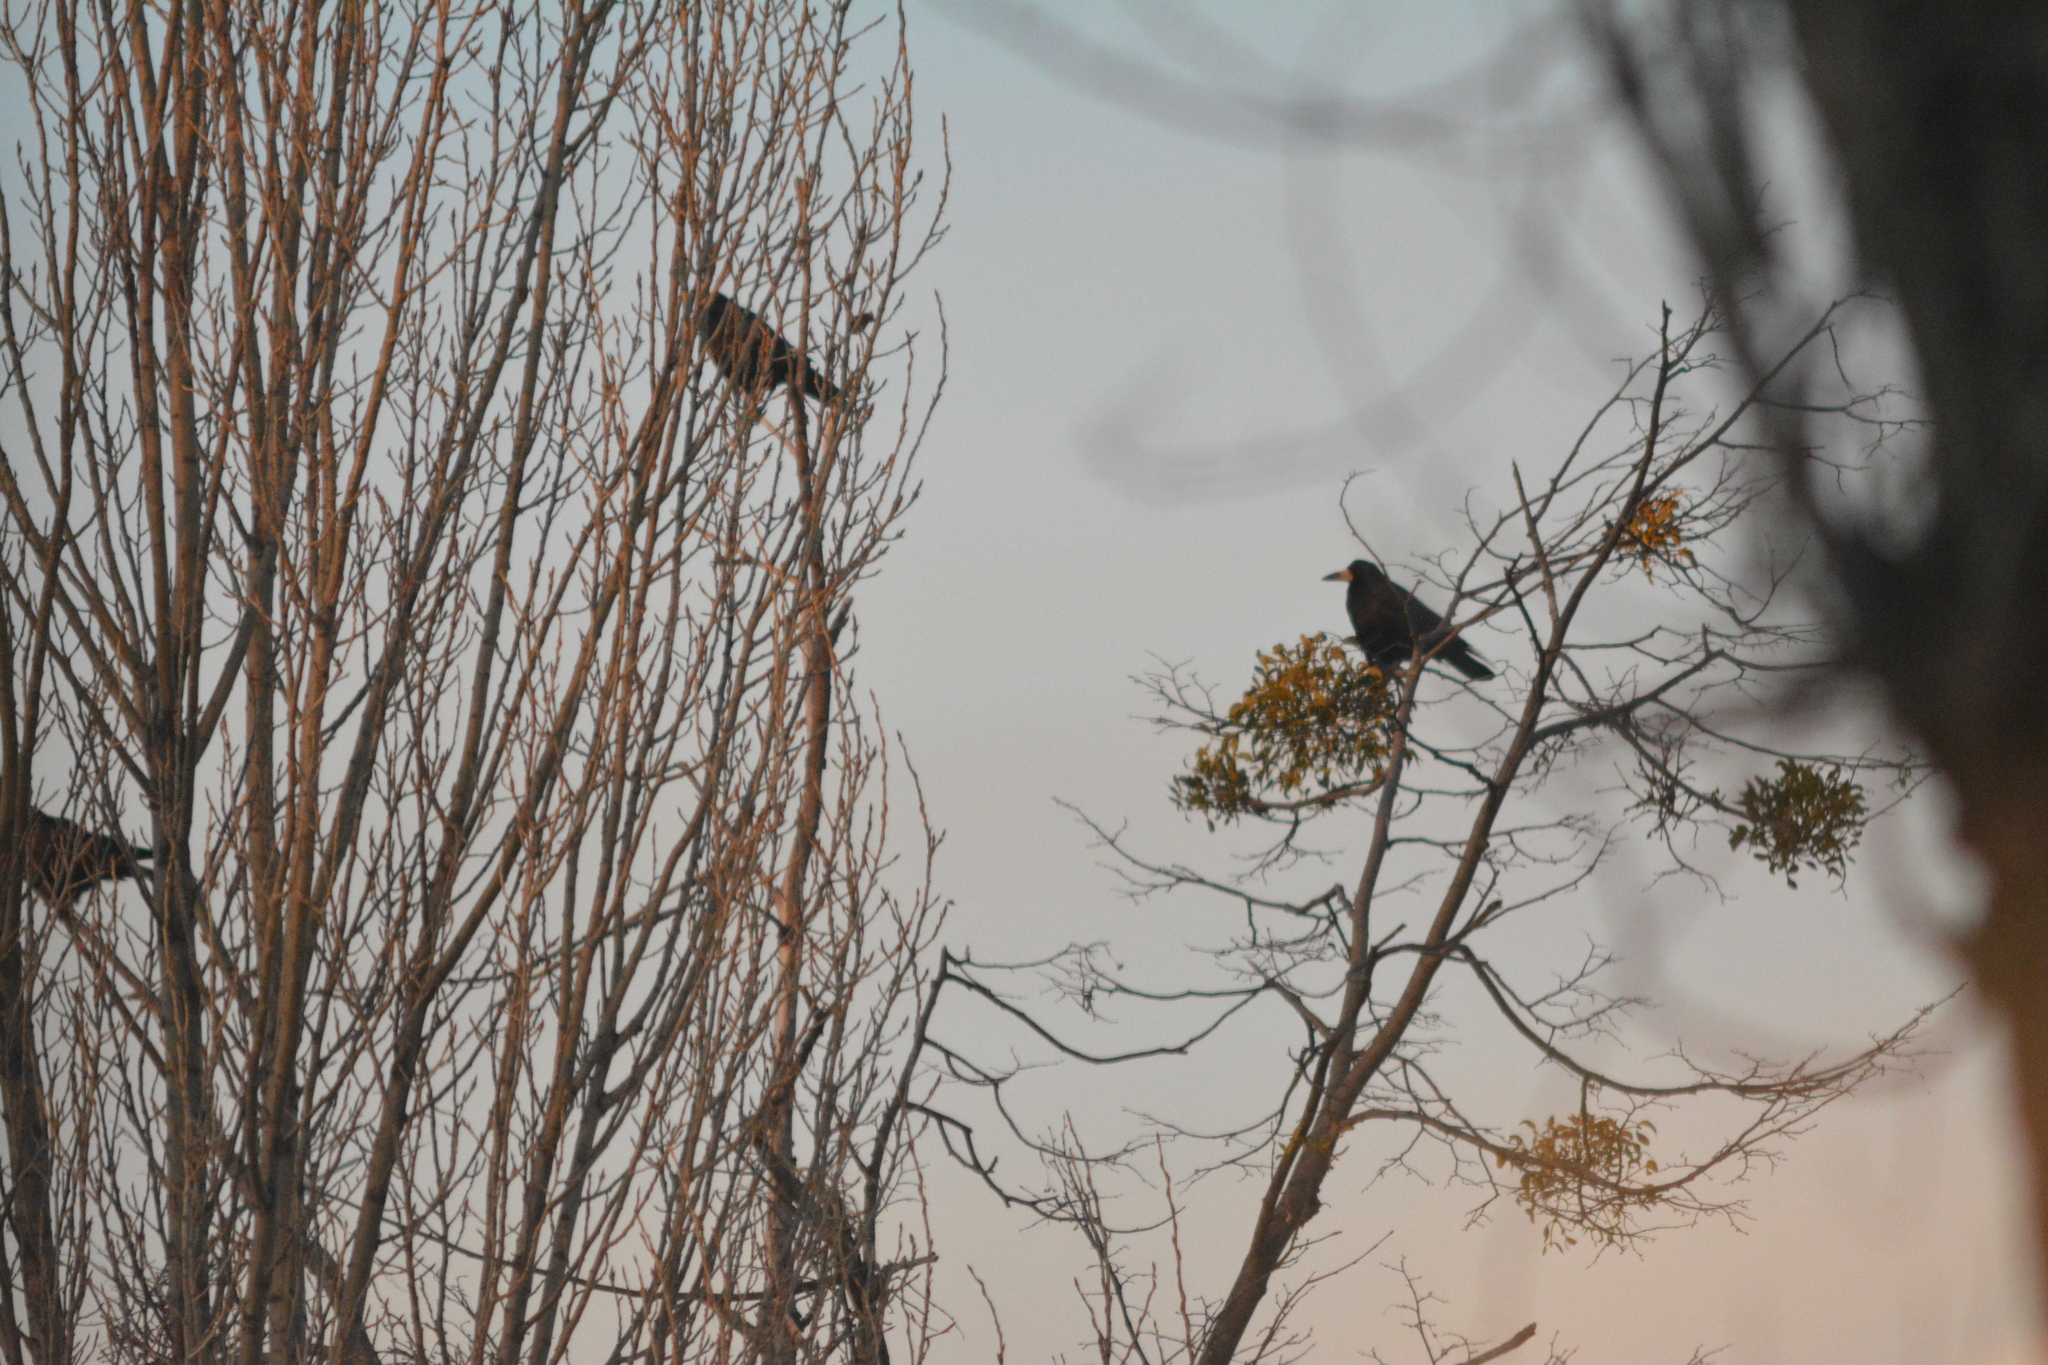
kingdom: Animalia
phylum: Chordata
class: Aves
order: Passeriformes
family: Corvidae
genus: Corvus
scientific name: Corvus frugilegus
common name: Rook
